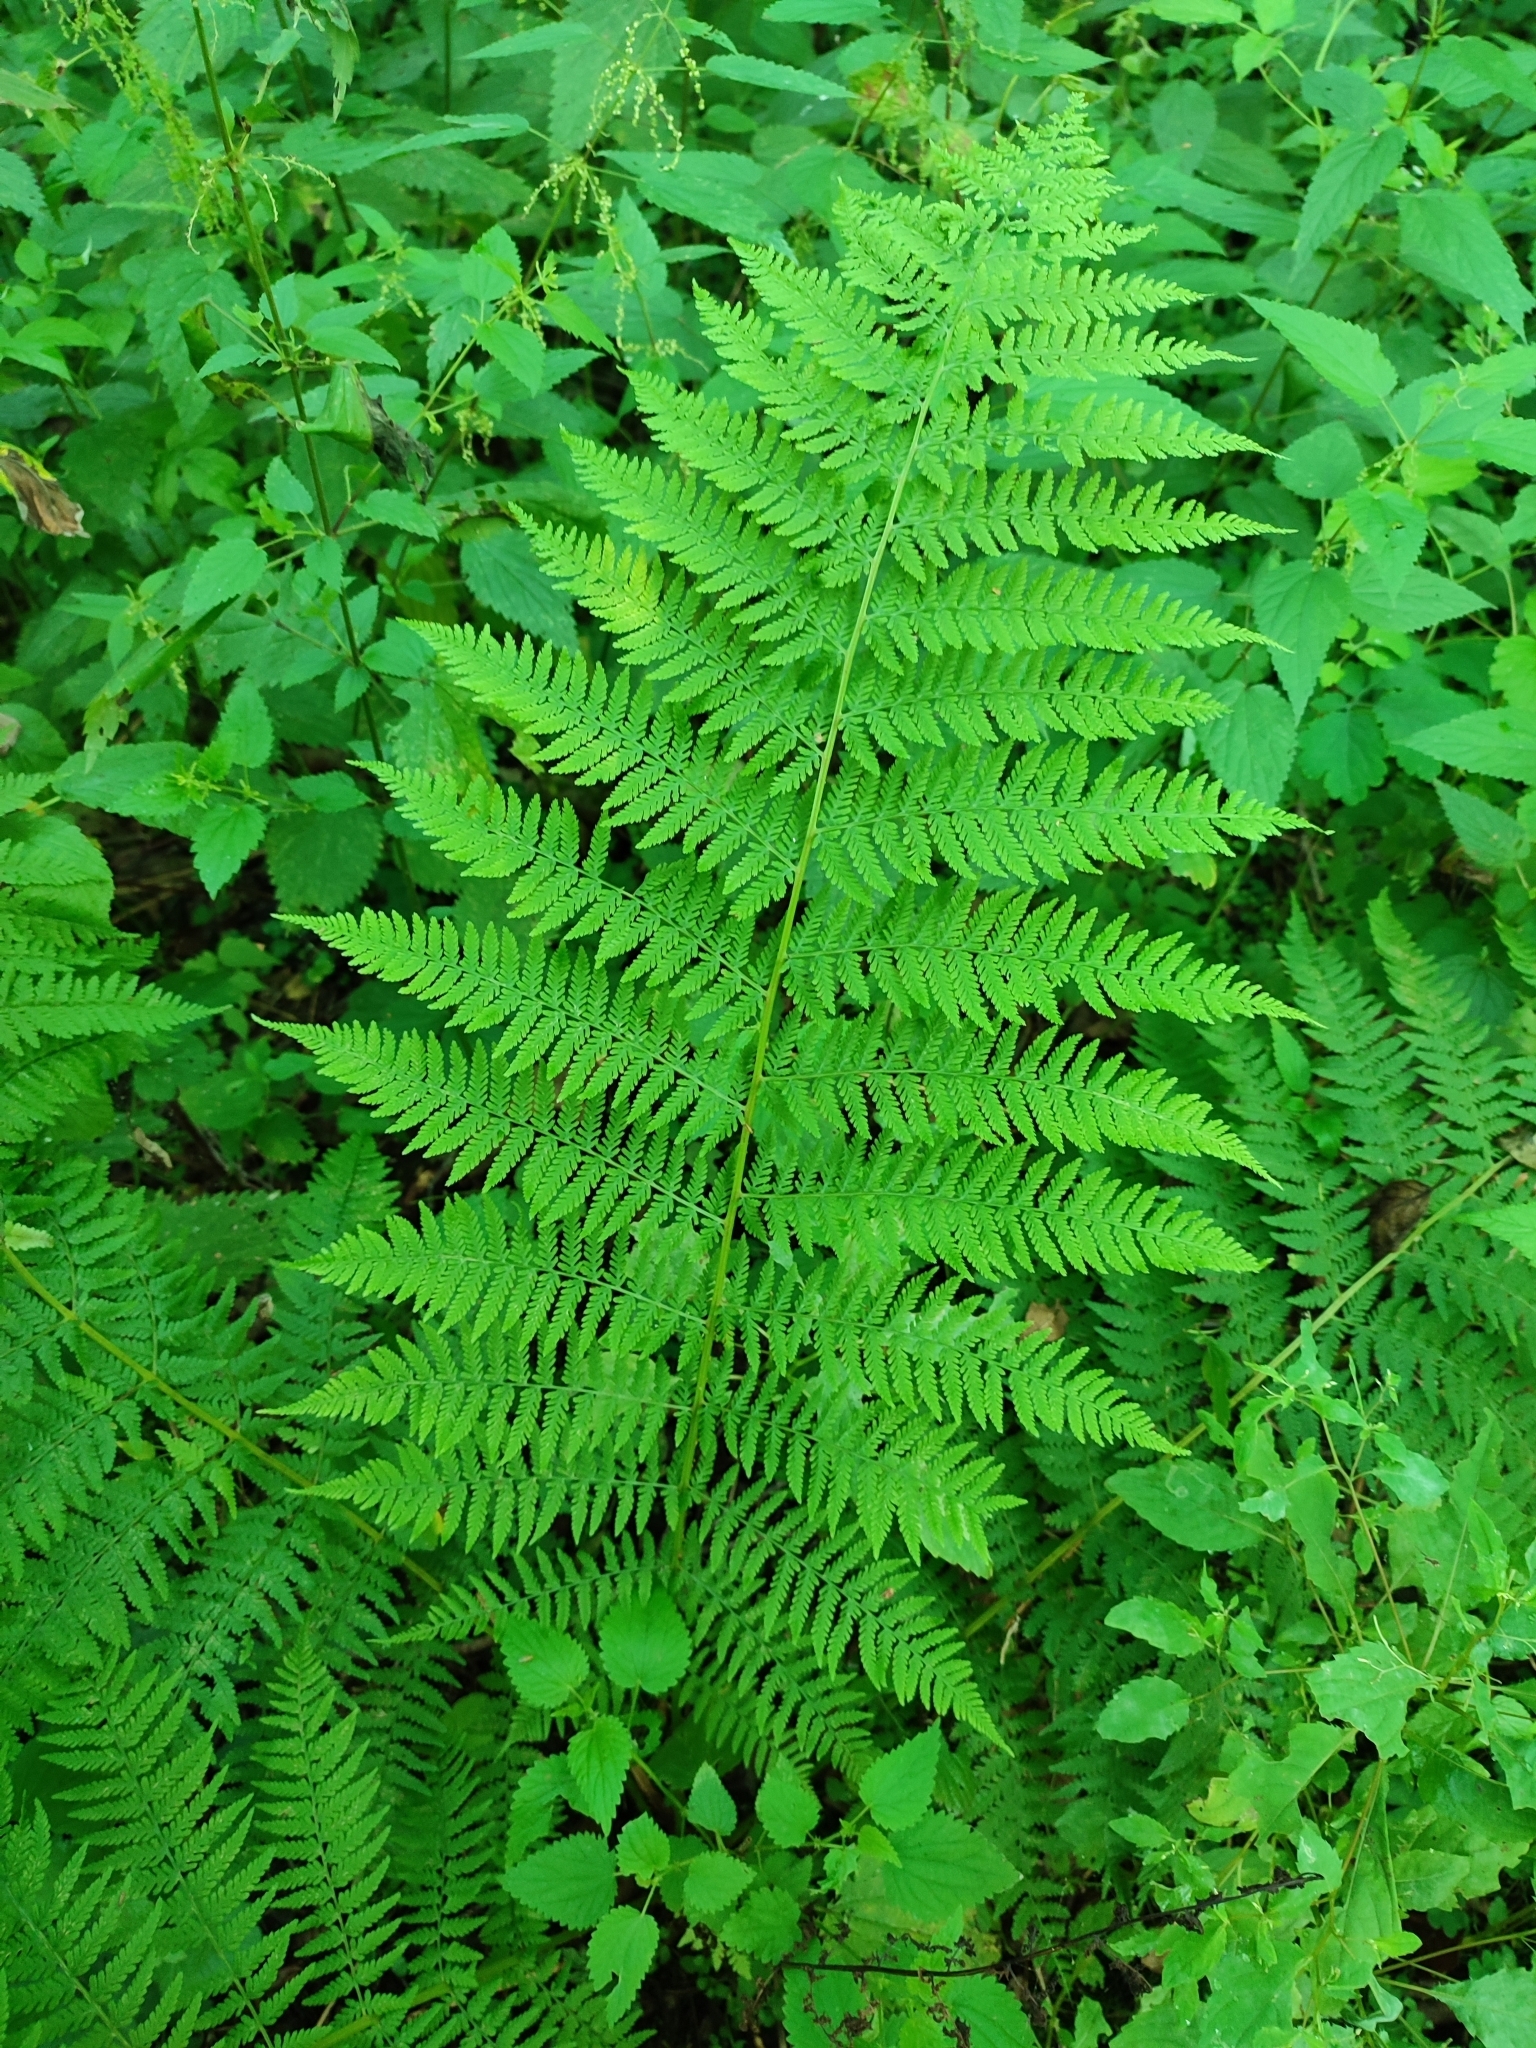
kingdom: Plantae
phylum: Tracheophyta
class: Polypodiopsida
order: Polypodiales
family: Athyriaceae
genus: Athyrium
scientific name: Athyrium filix-femina
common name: Lady fern
